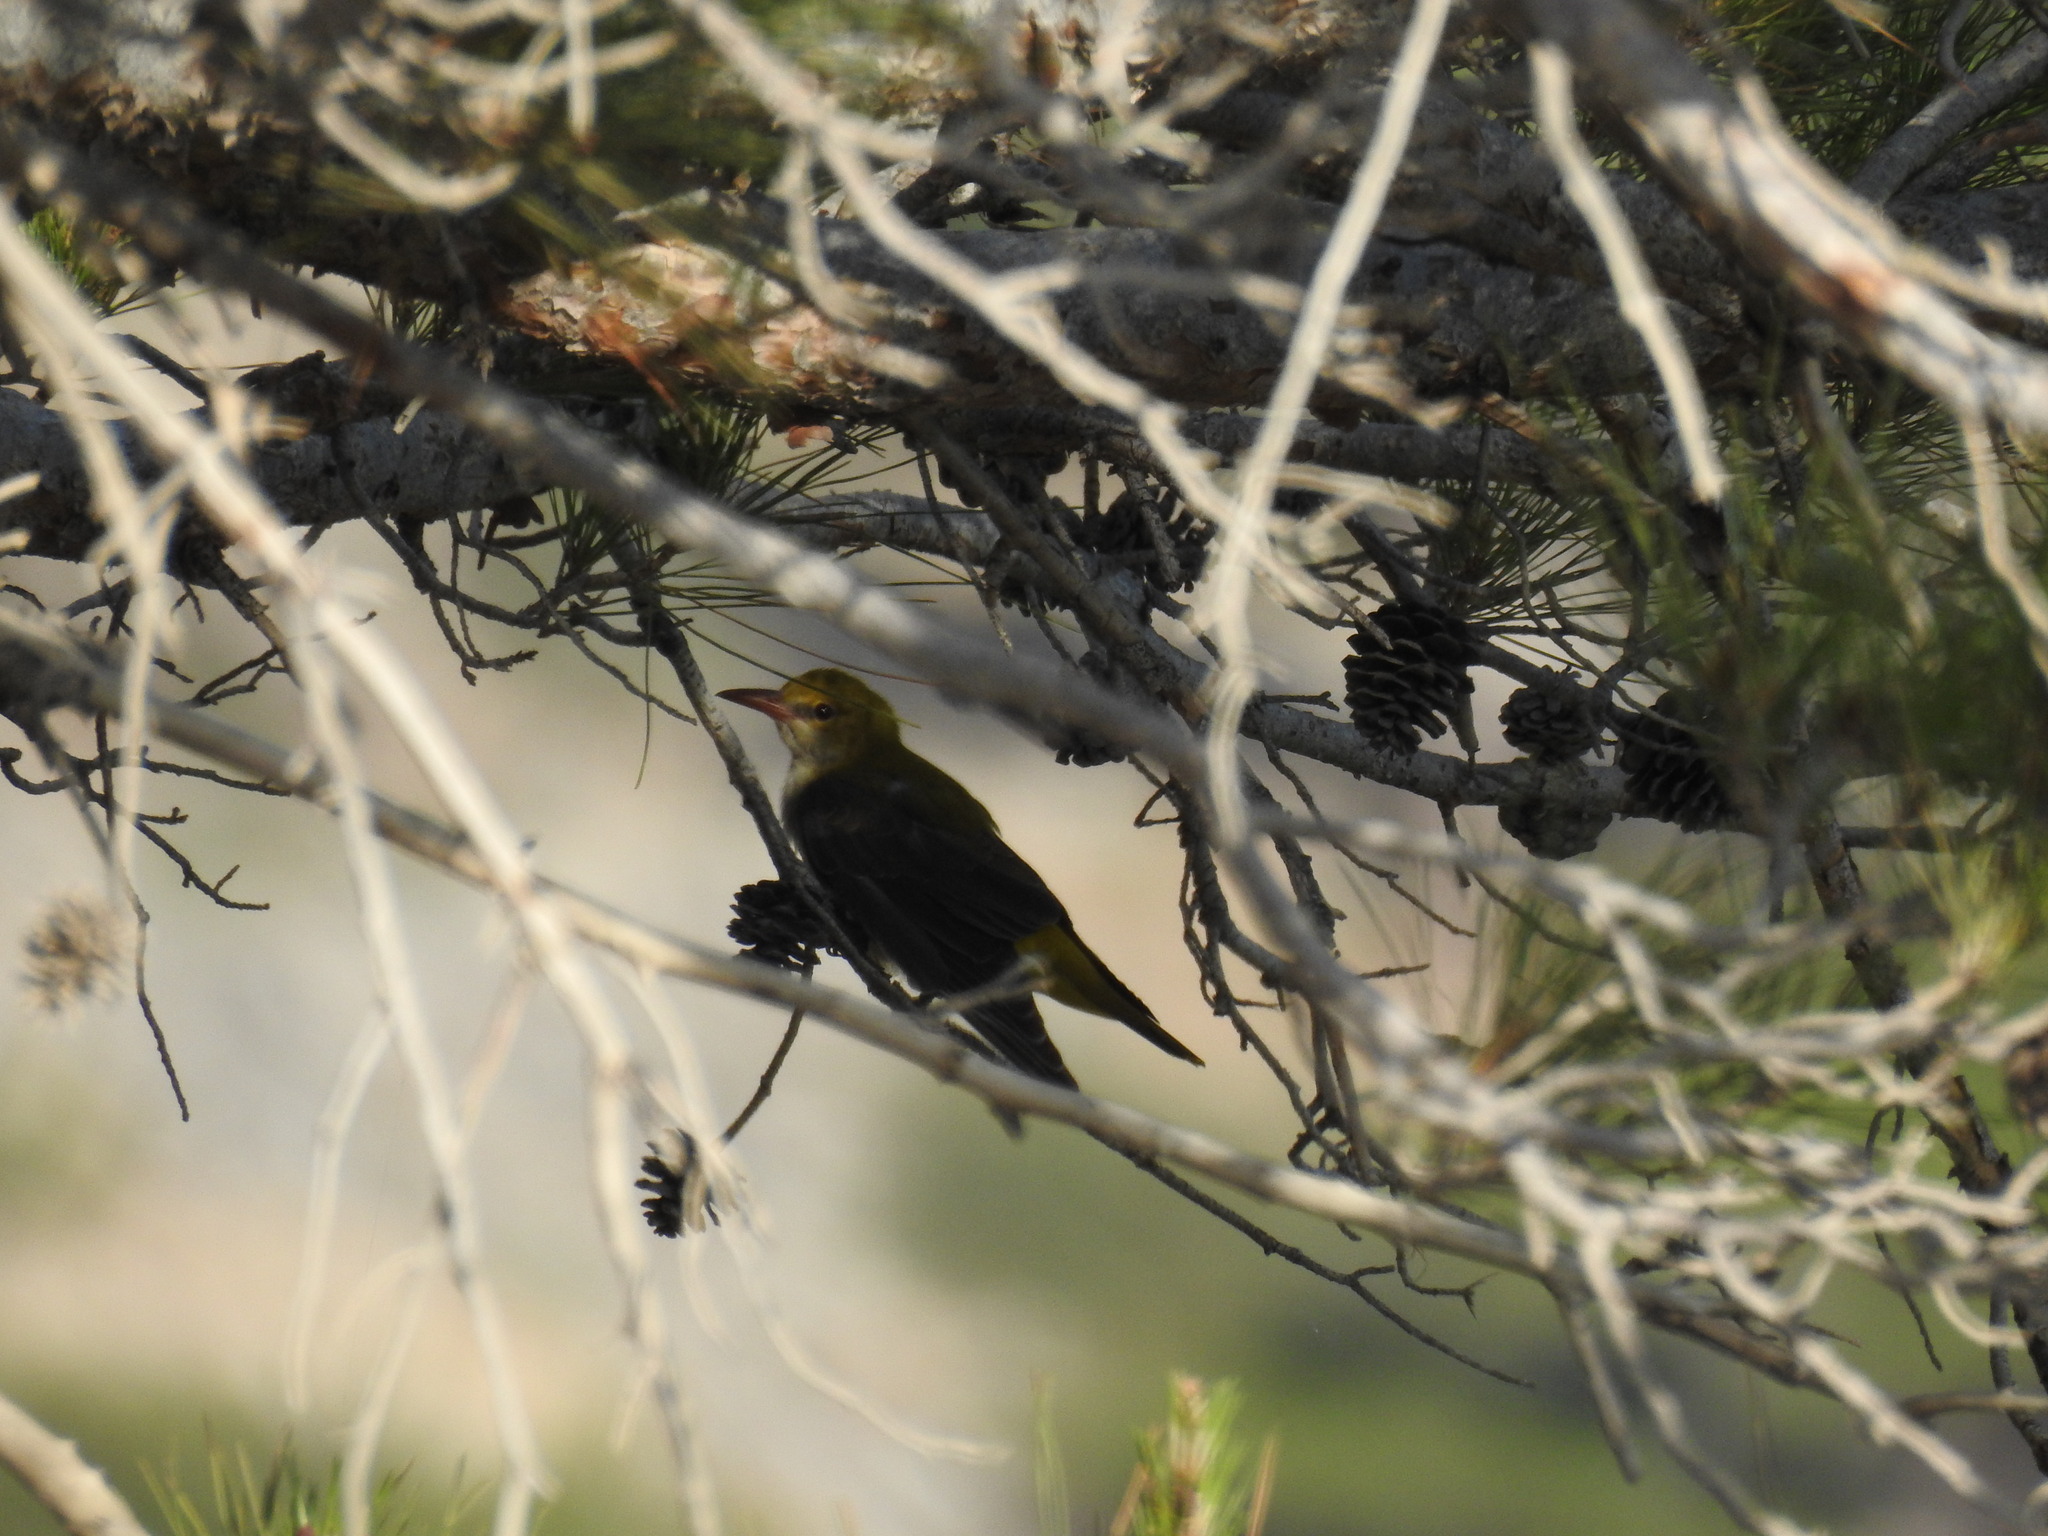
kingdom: Animalia
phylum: Chordata
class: Aves
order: Passeriformes
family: Oriolidae
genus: Oriolus
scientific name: Oriolus oriolus
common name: Eurasian golden oriole
